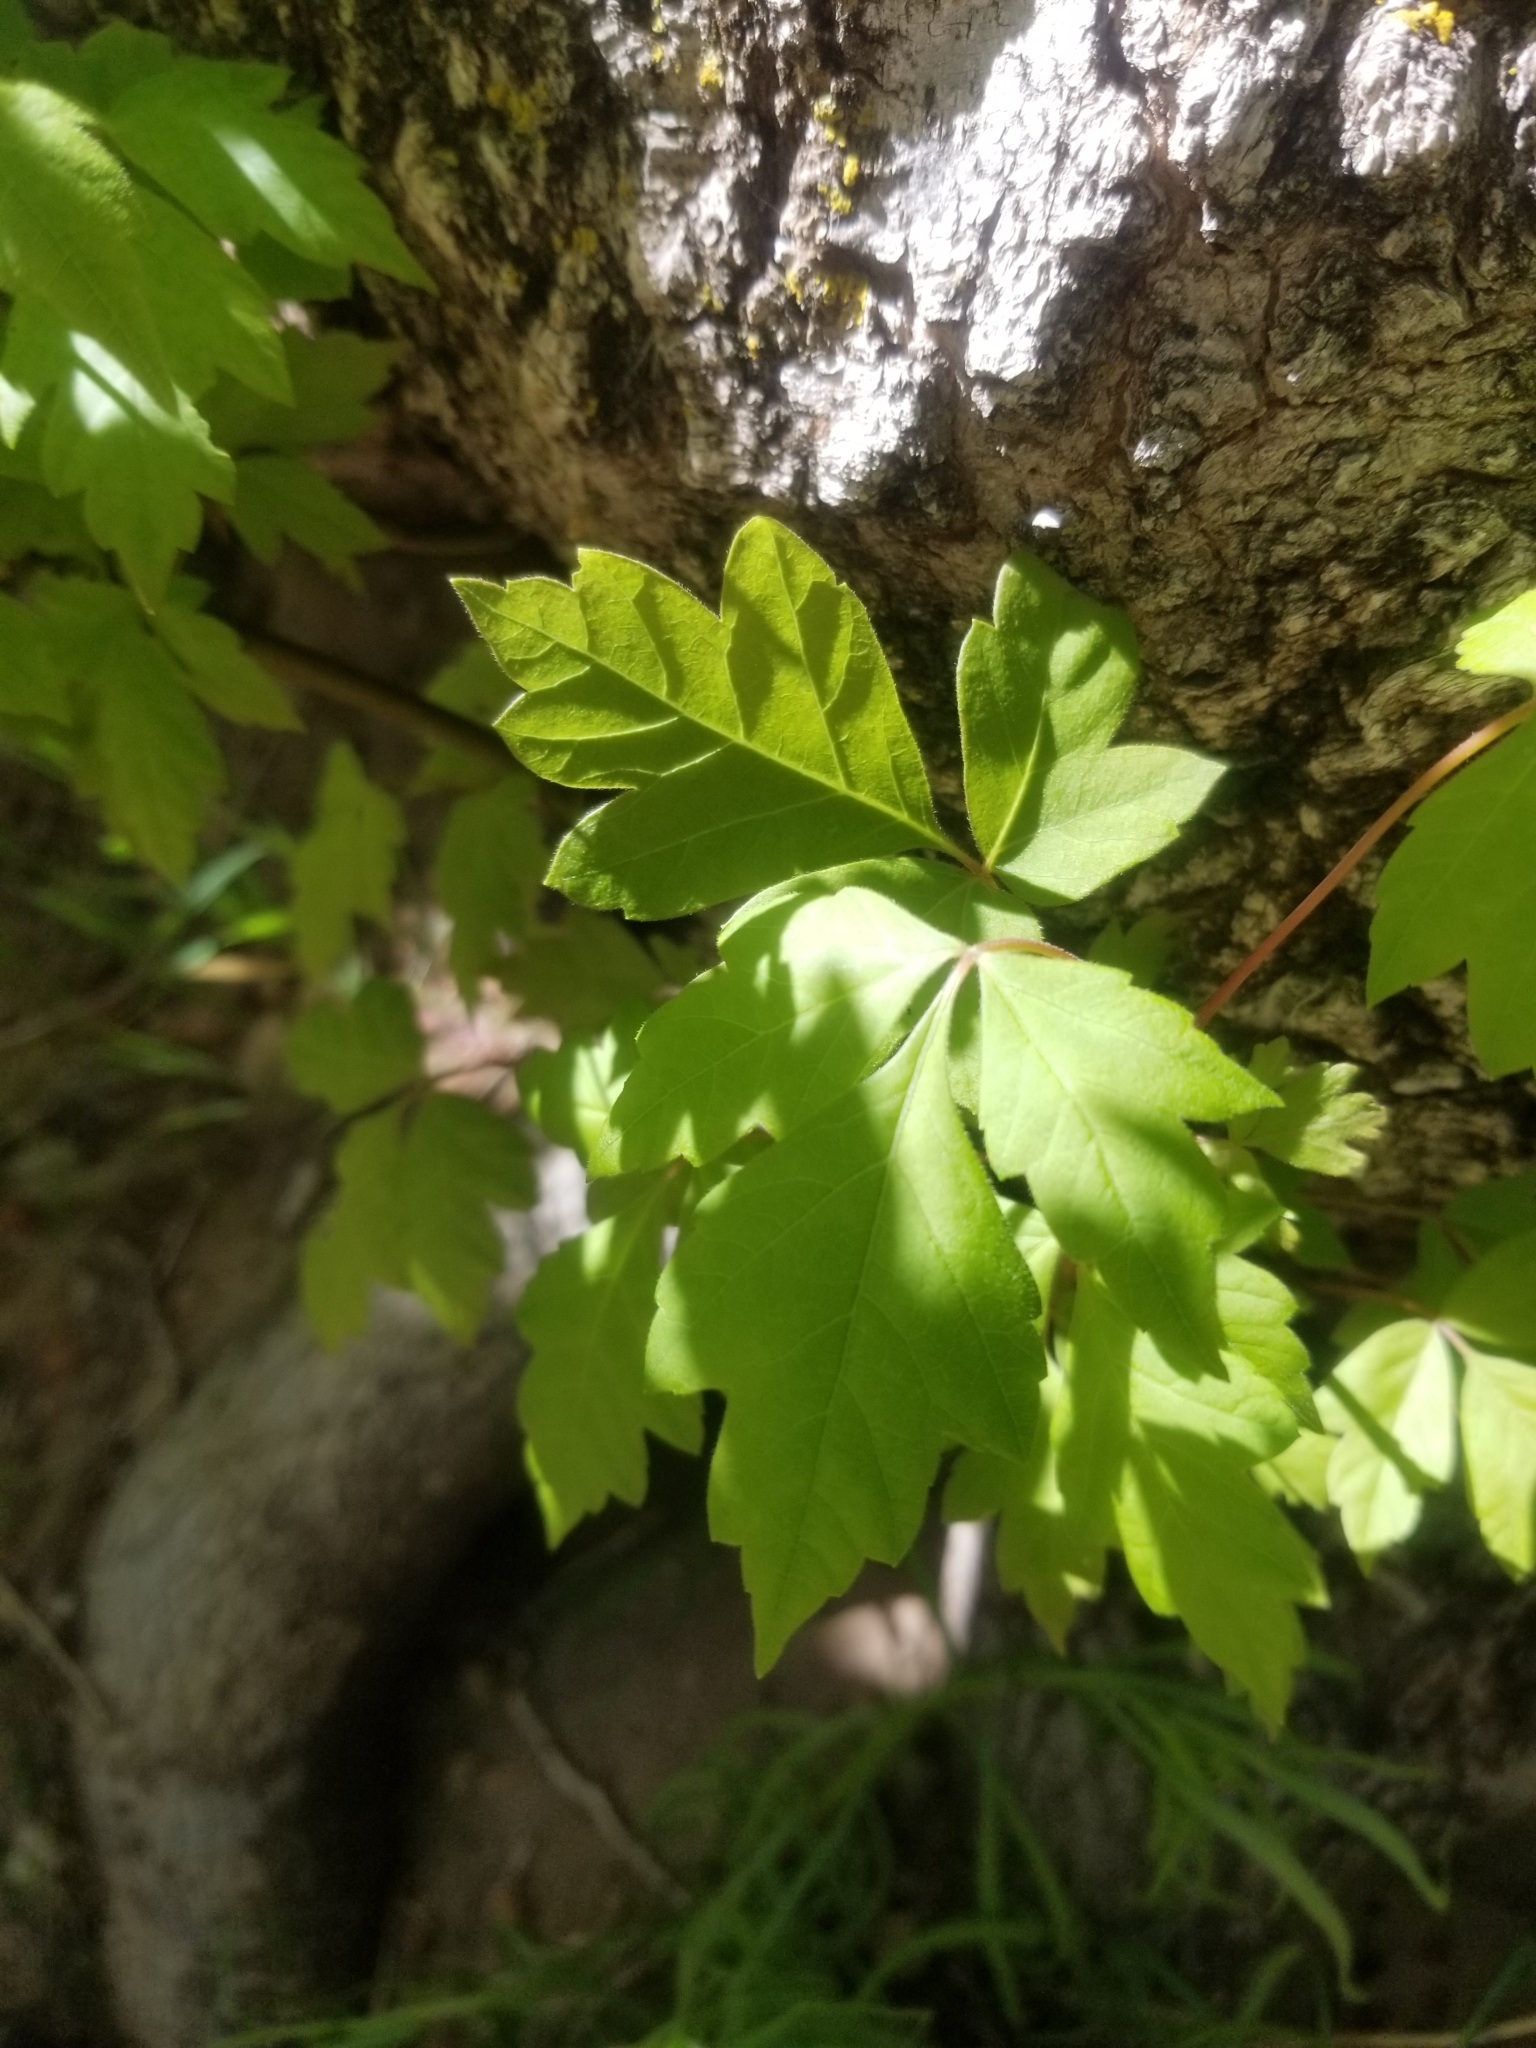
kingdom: Plantae
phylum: Tracheophyta
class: Magnoliopsida
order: Sapindales
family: Sapindaceae
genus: Acer
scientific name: Acer negundo
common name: Ashleaf maple
